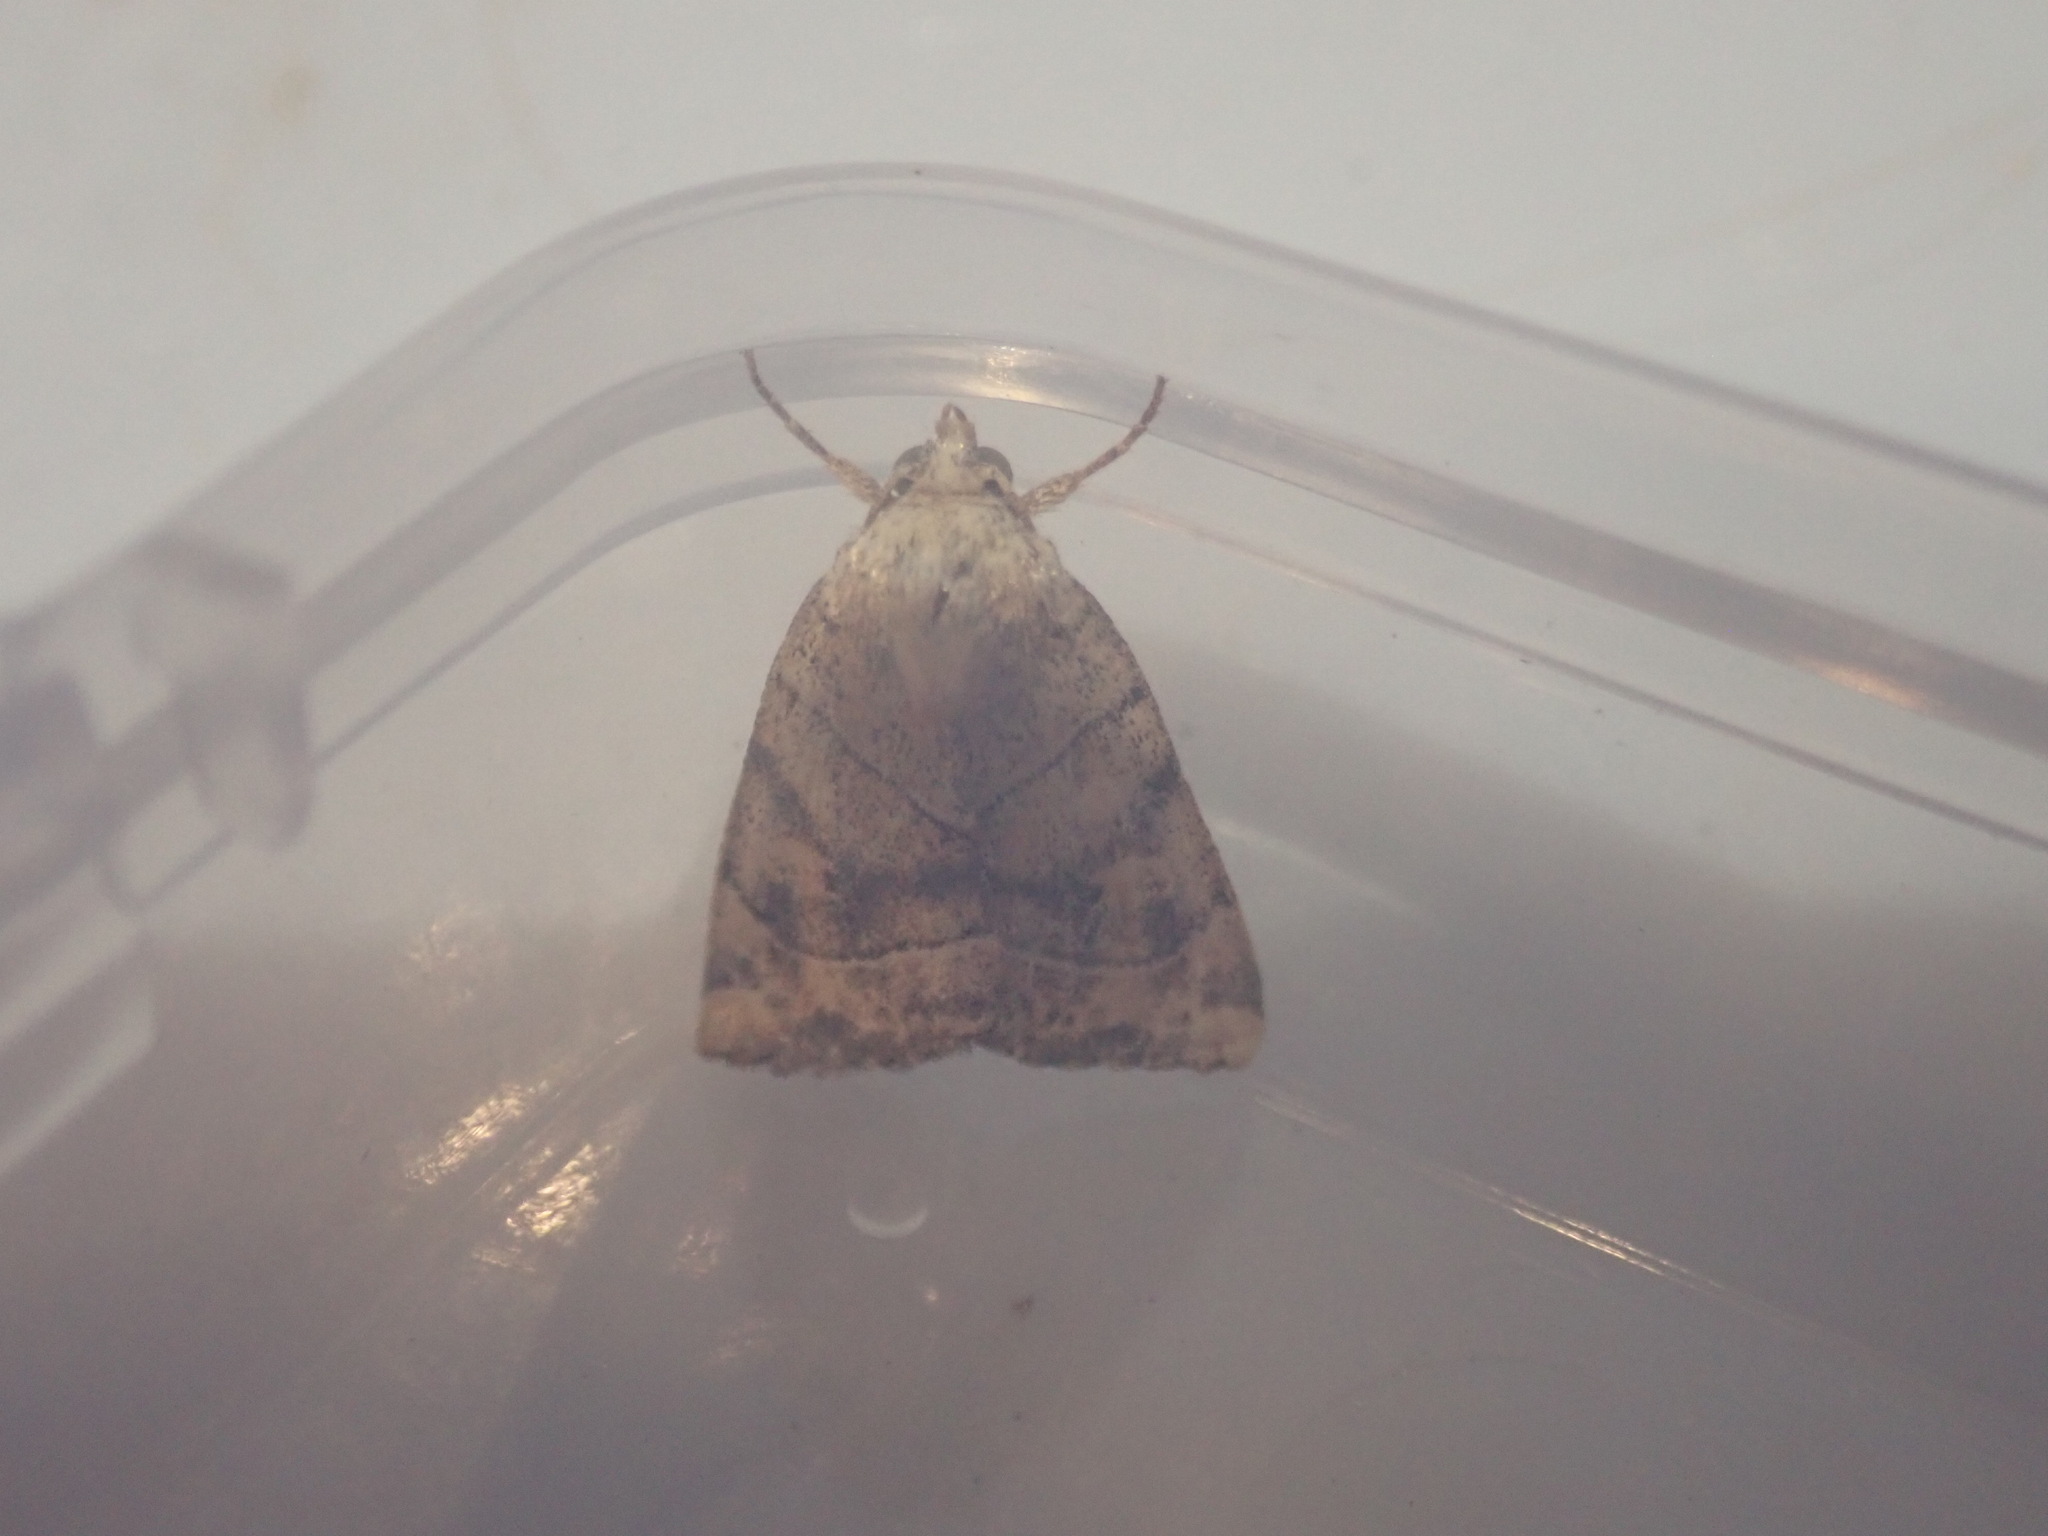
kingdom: Animalia
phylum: Arthropoda
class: Insecta
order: Lepidoptera
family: Noctuidae
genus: Cosmia
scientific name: Cosmia trapezina
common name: Dun-bar
